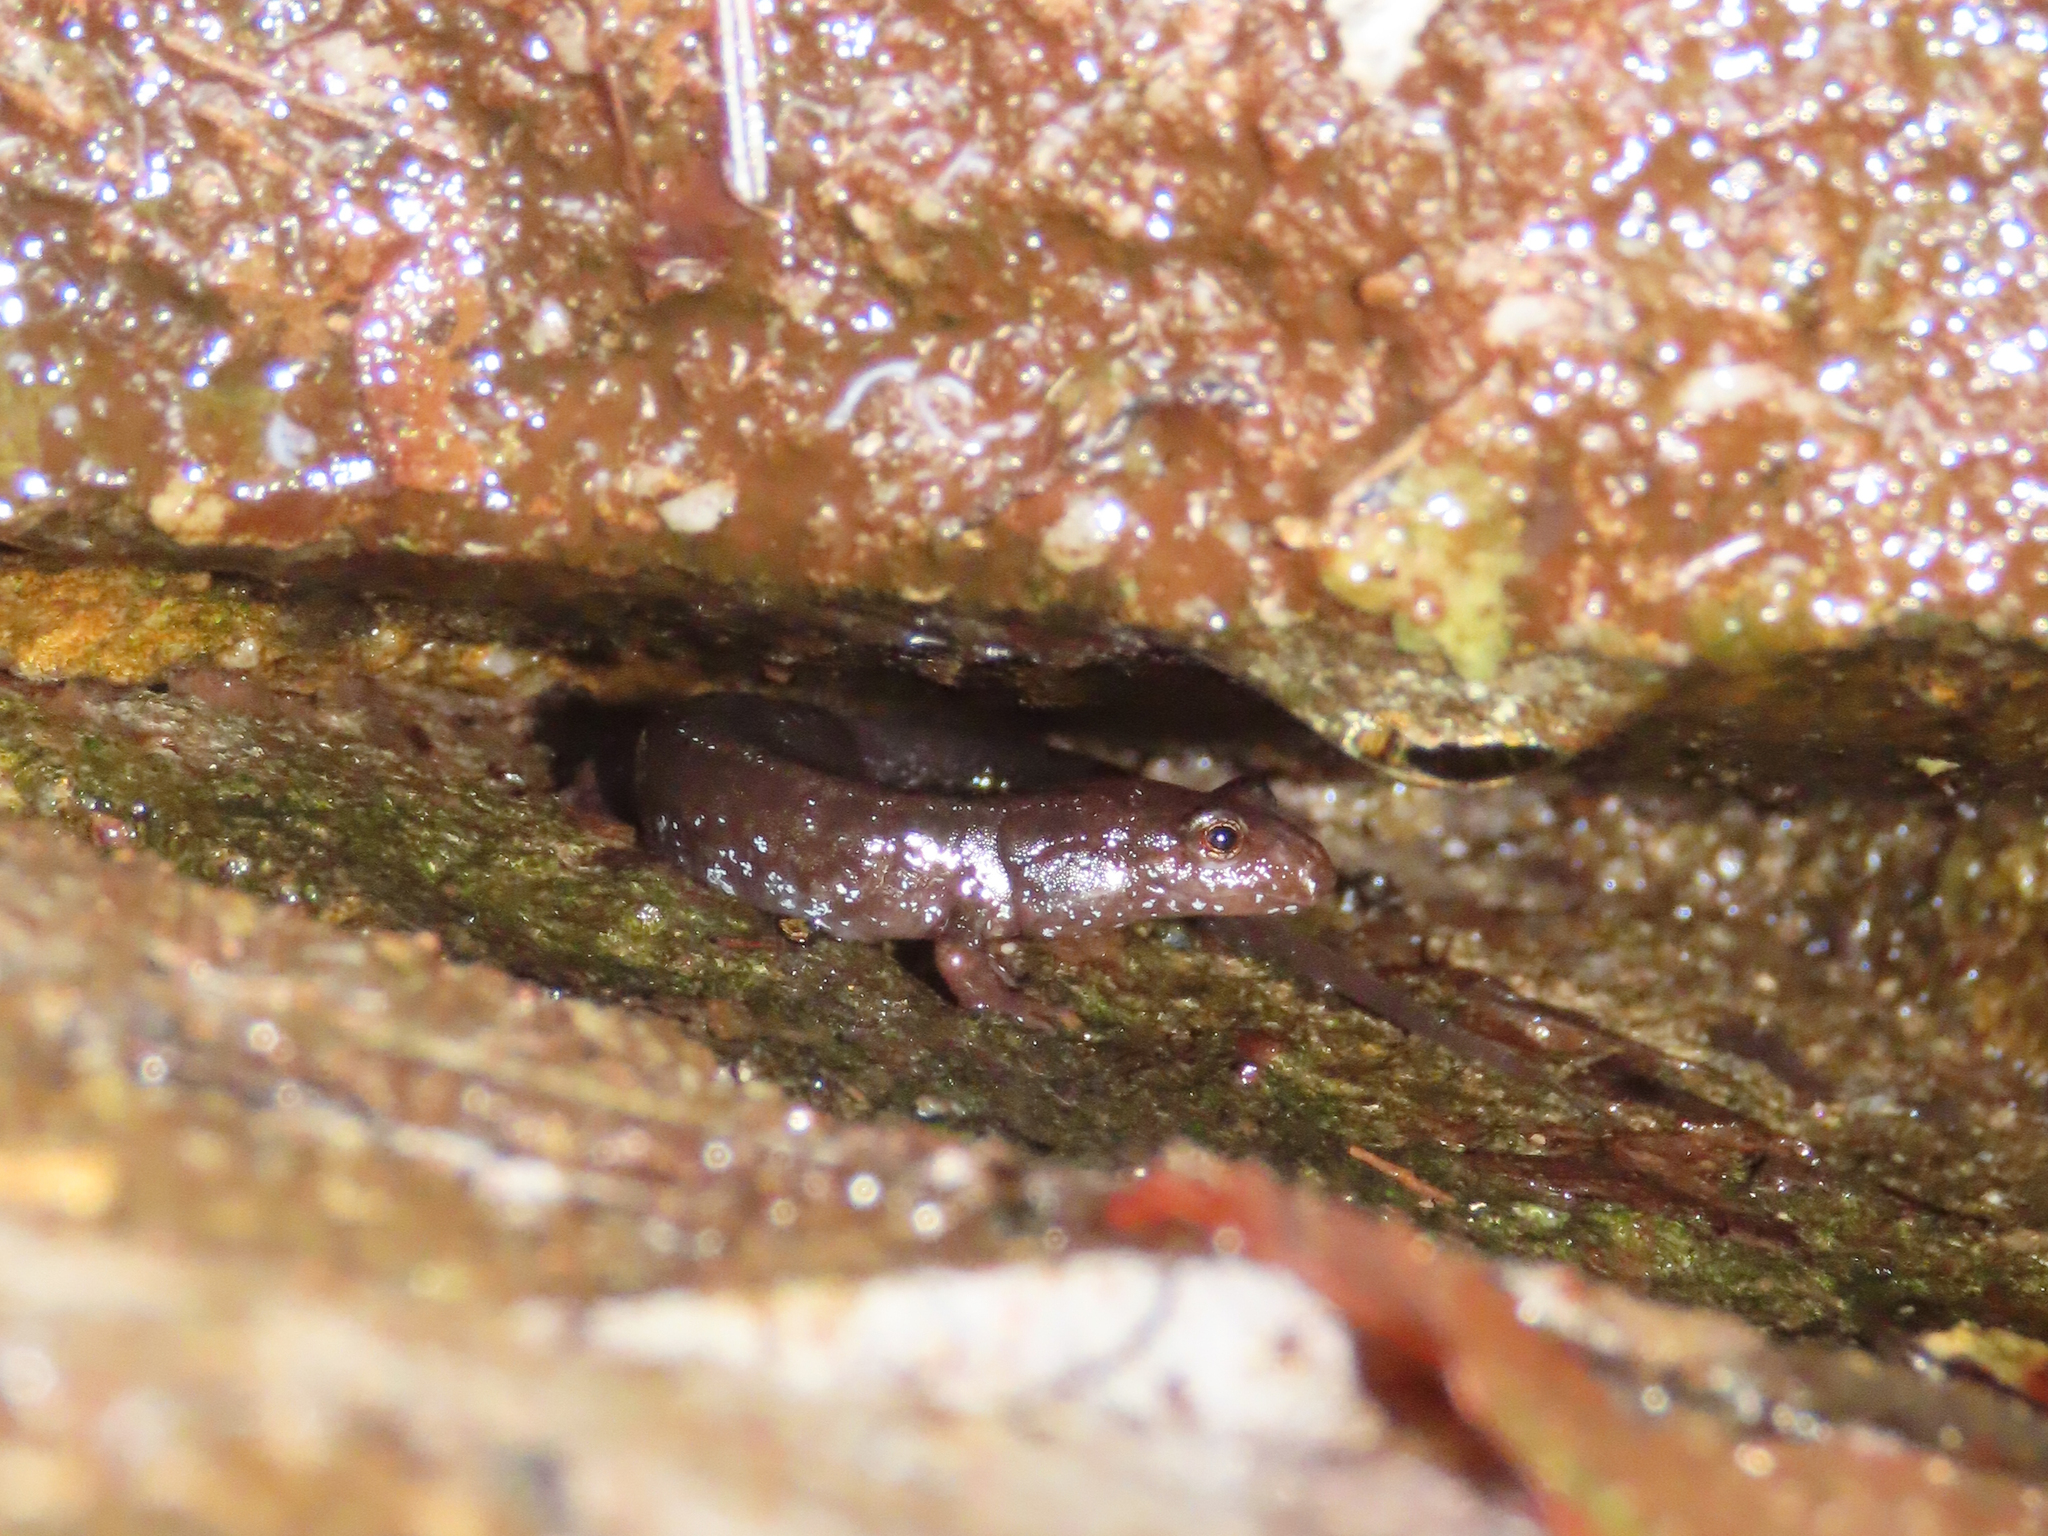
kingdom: Animalia
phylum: Chordata
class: Amphibia
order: Caudata
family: Plethodontidae
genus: Desmognathus
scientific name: Desmognathus monticola
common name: Seal salamander
